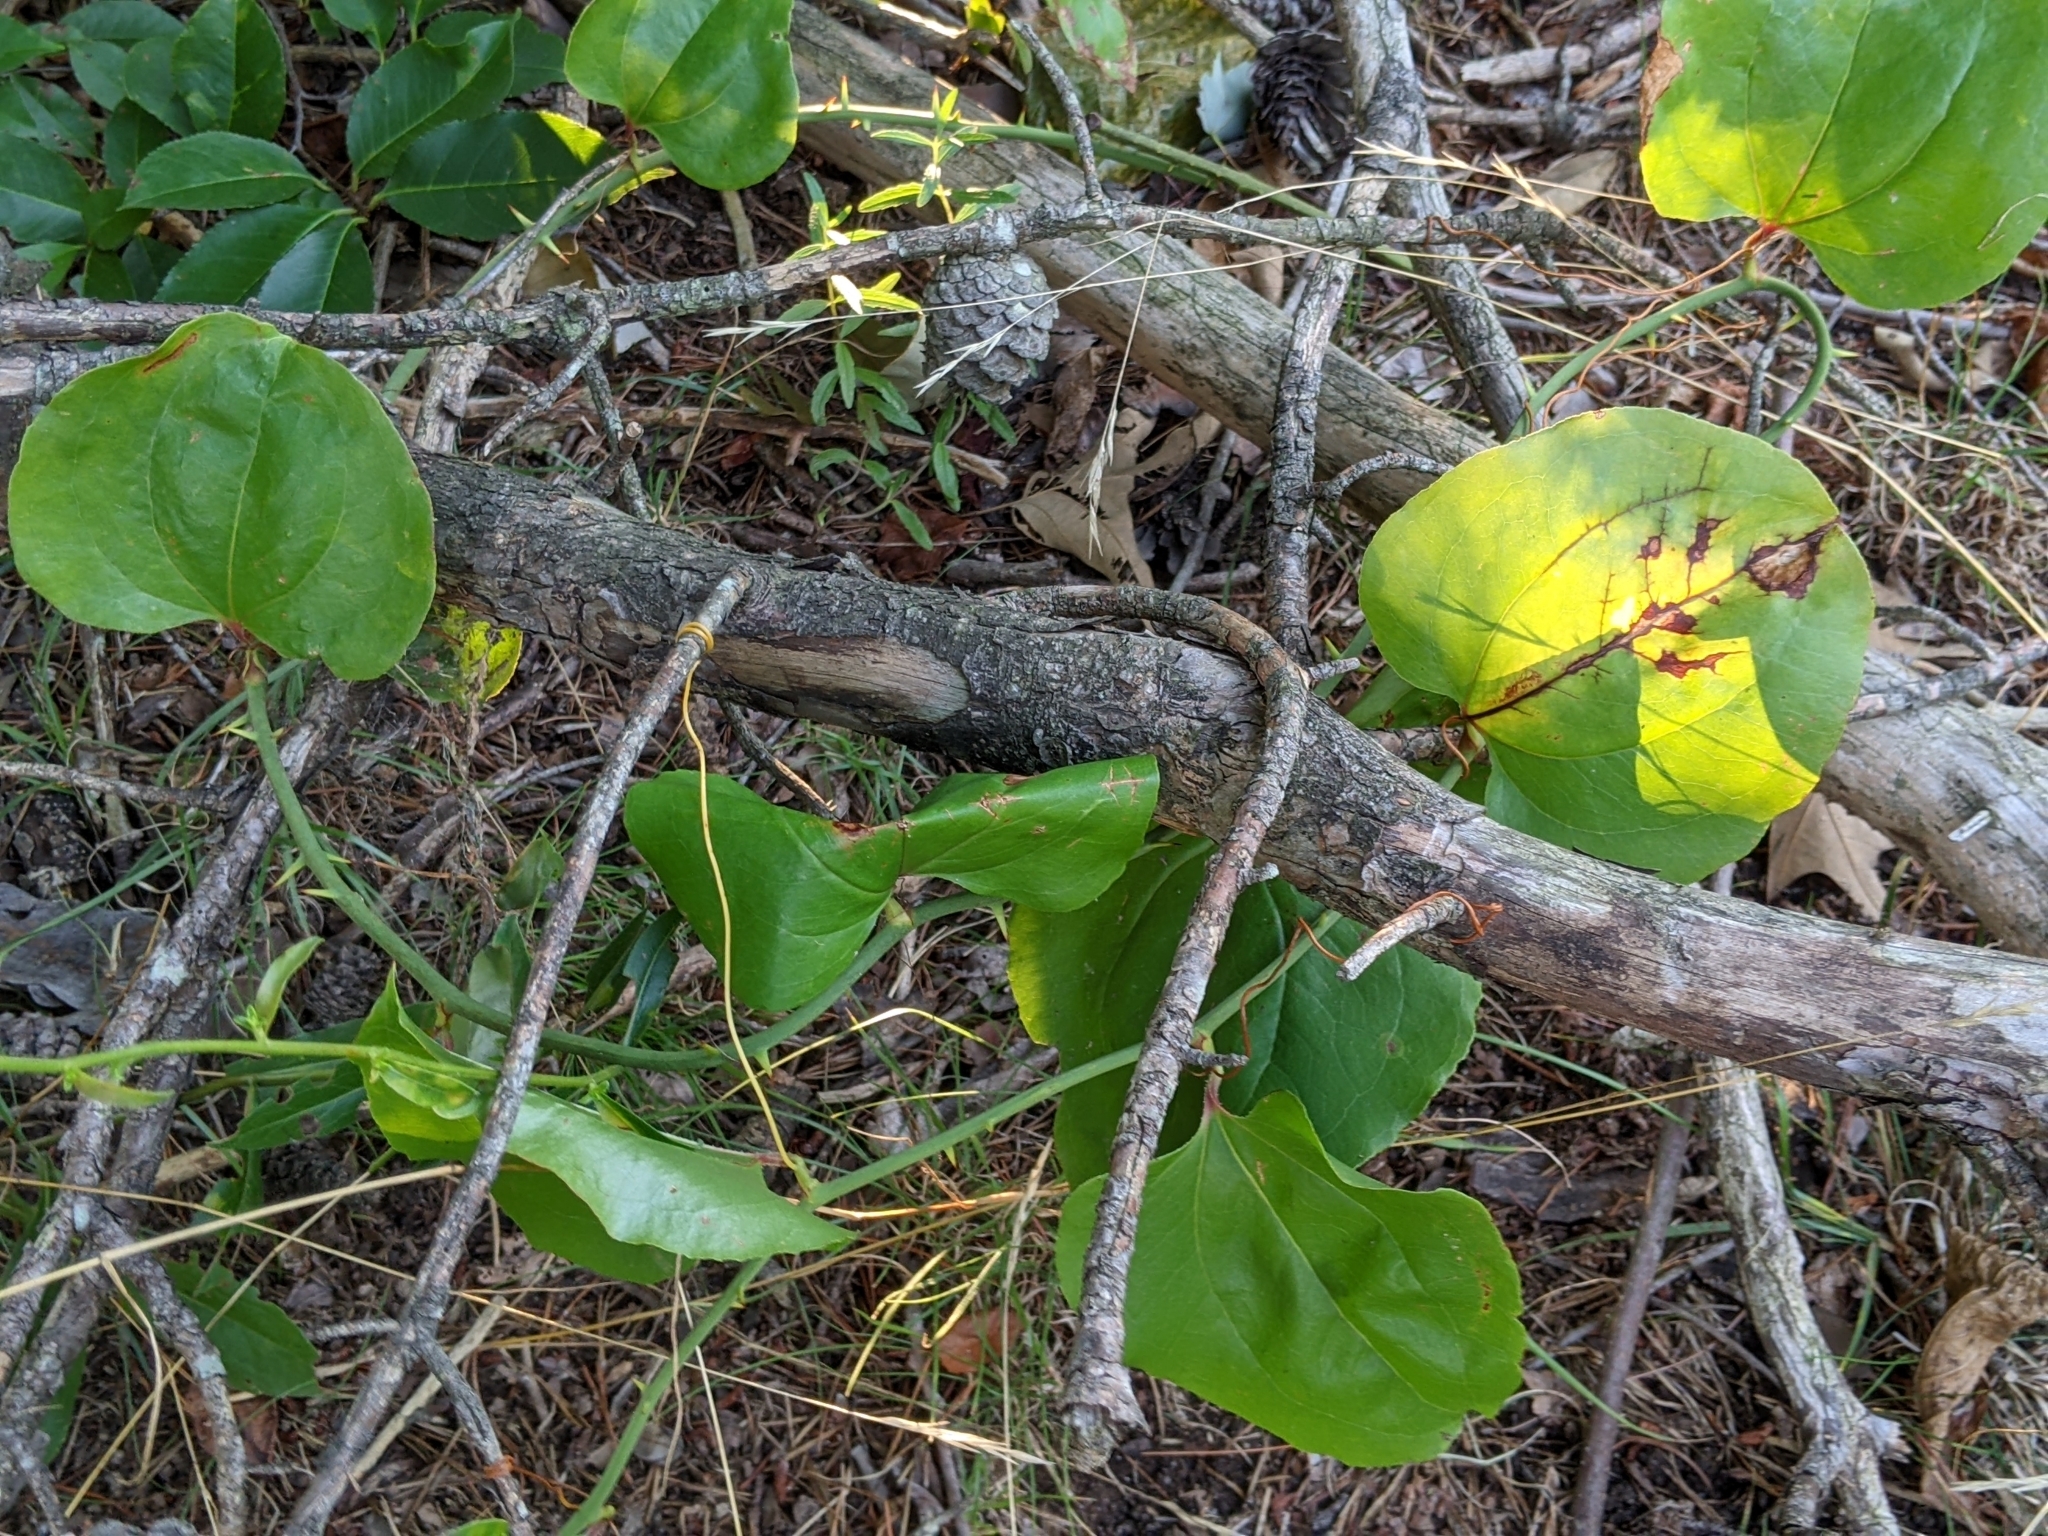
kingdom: Plantae
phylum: Tracheophyta
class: Liliopsida
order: Liliales
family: Smilacaceae
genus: Smilax
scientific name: Smilax rotundifolia
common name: Bullbriar
